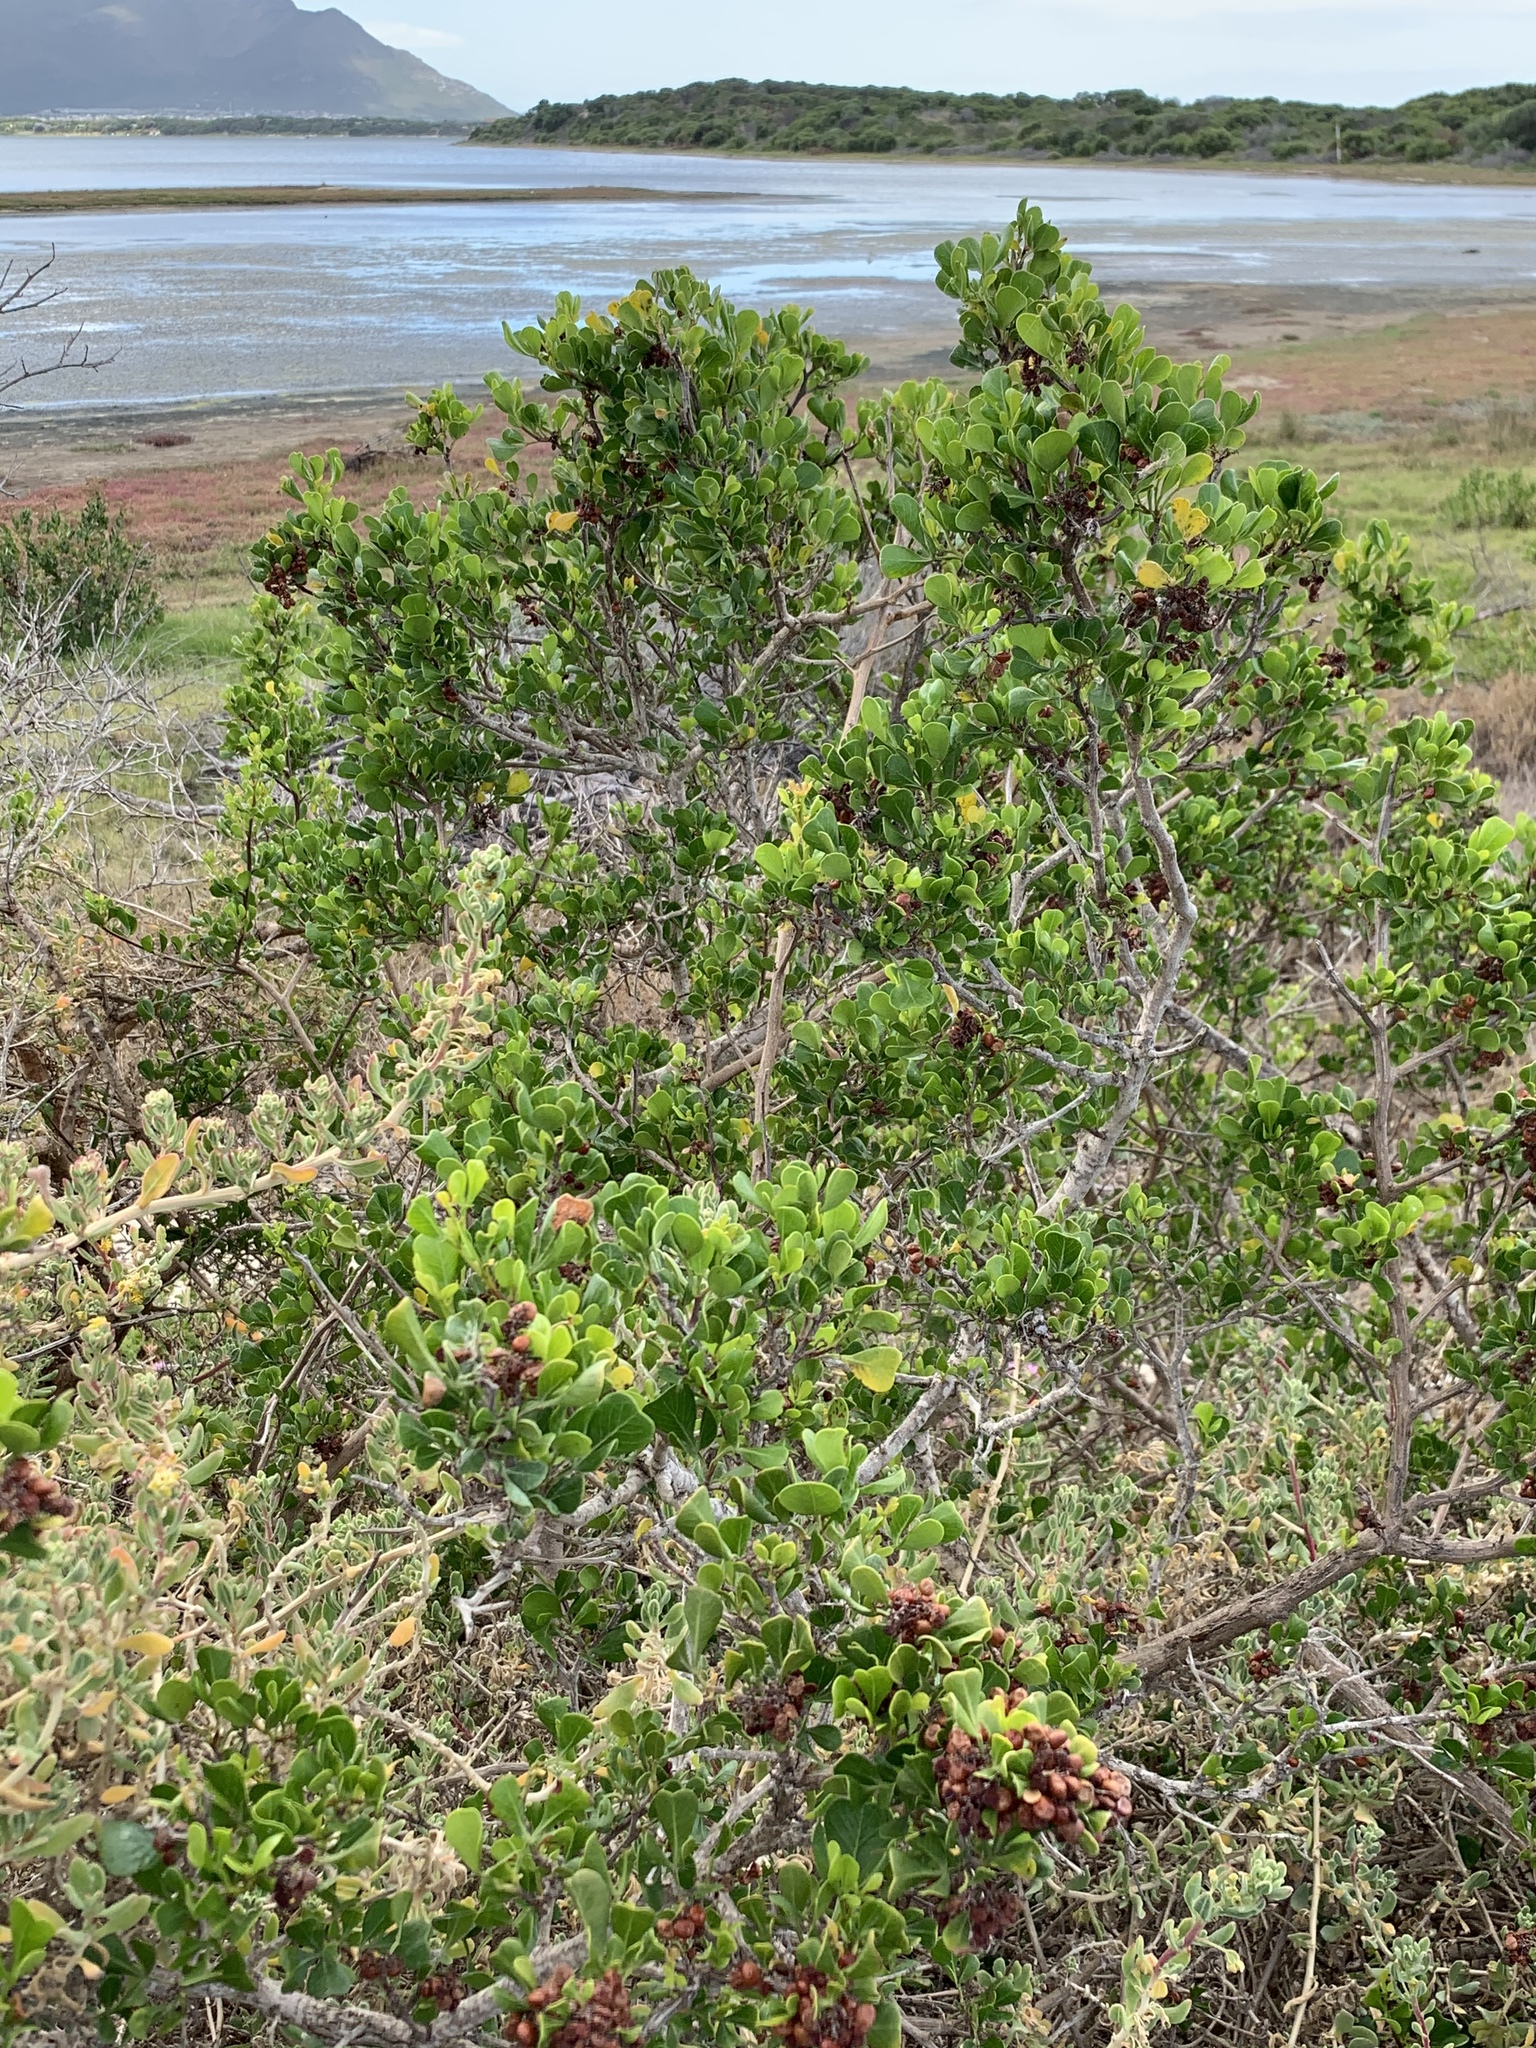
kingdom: Plantae
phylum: Tracheophyta
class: Magnoliopsida
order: Sapindales
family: Anacardiaceae
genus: Searsia
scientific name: Searsia glauca
